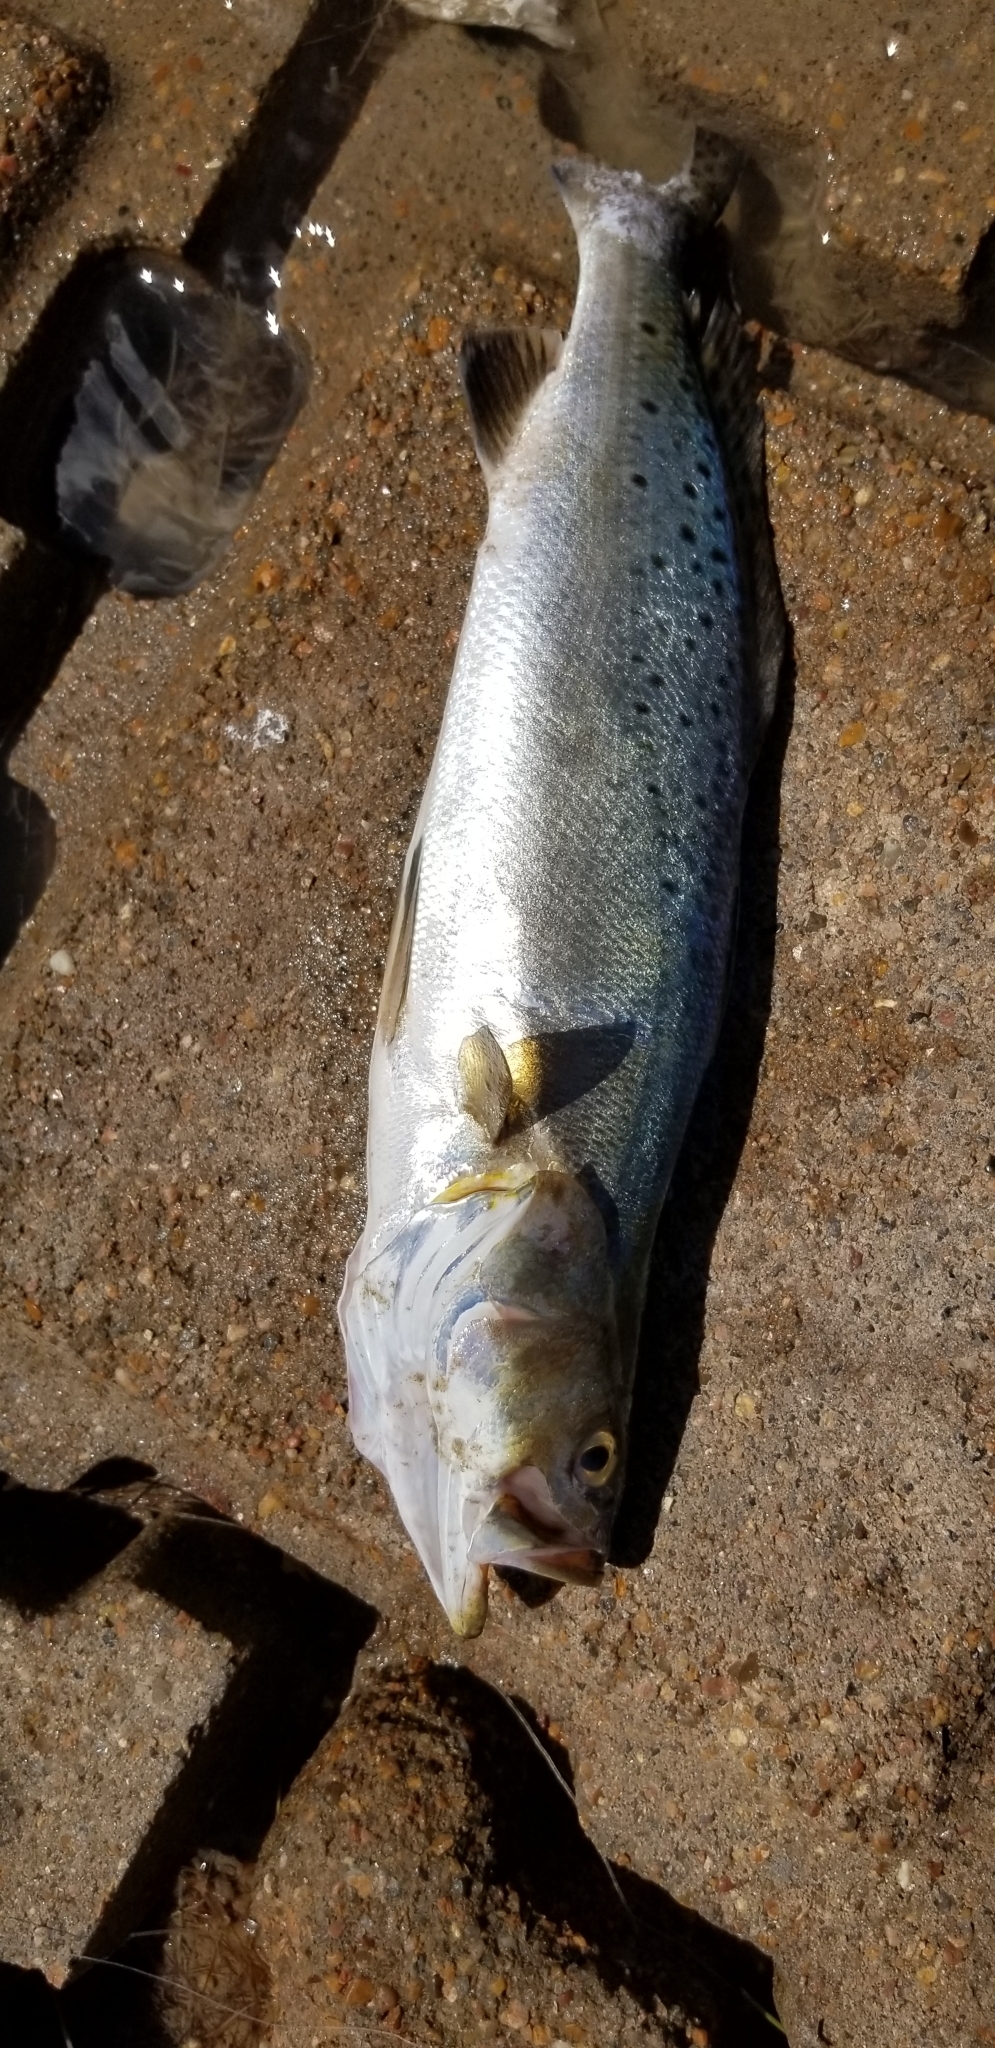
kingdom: Animalia
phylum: Chordata
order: Perciformes
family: Sciaenidae
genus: Cynoscion
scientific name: Cynoscion nebulosus
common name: Spotted seatrout
